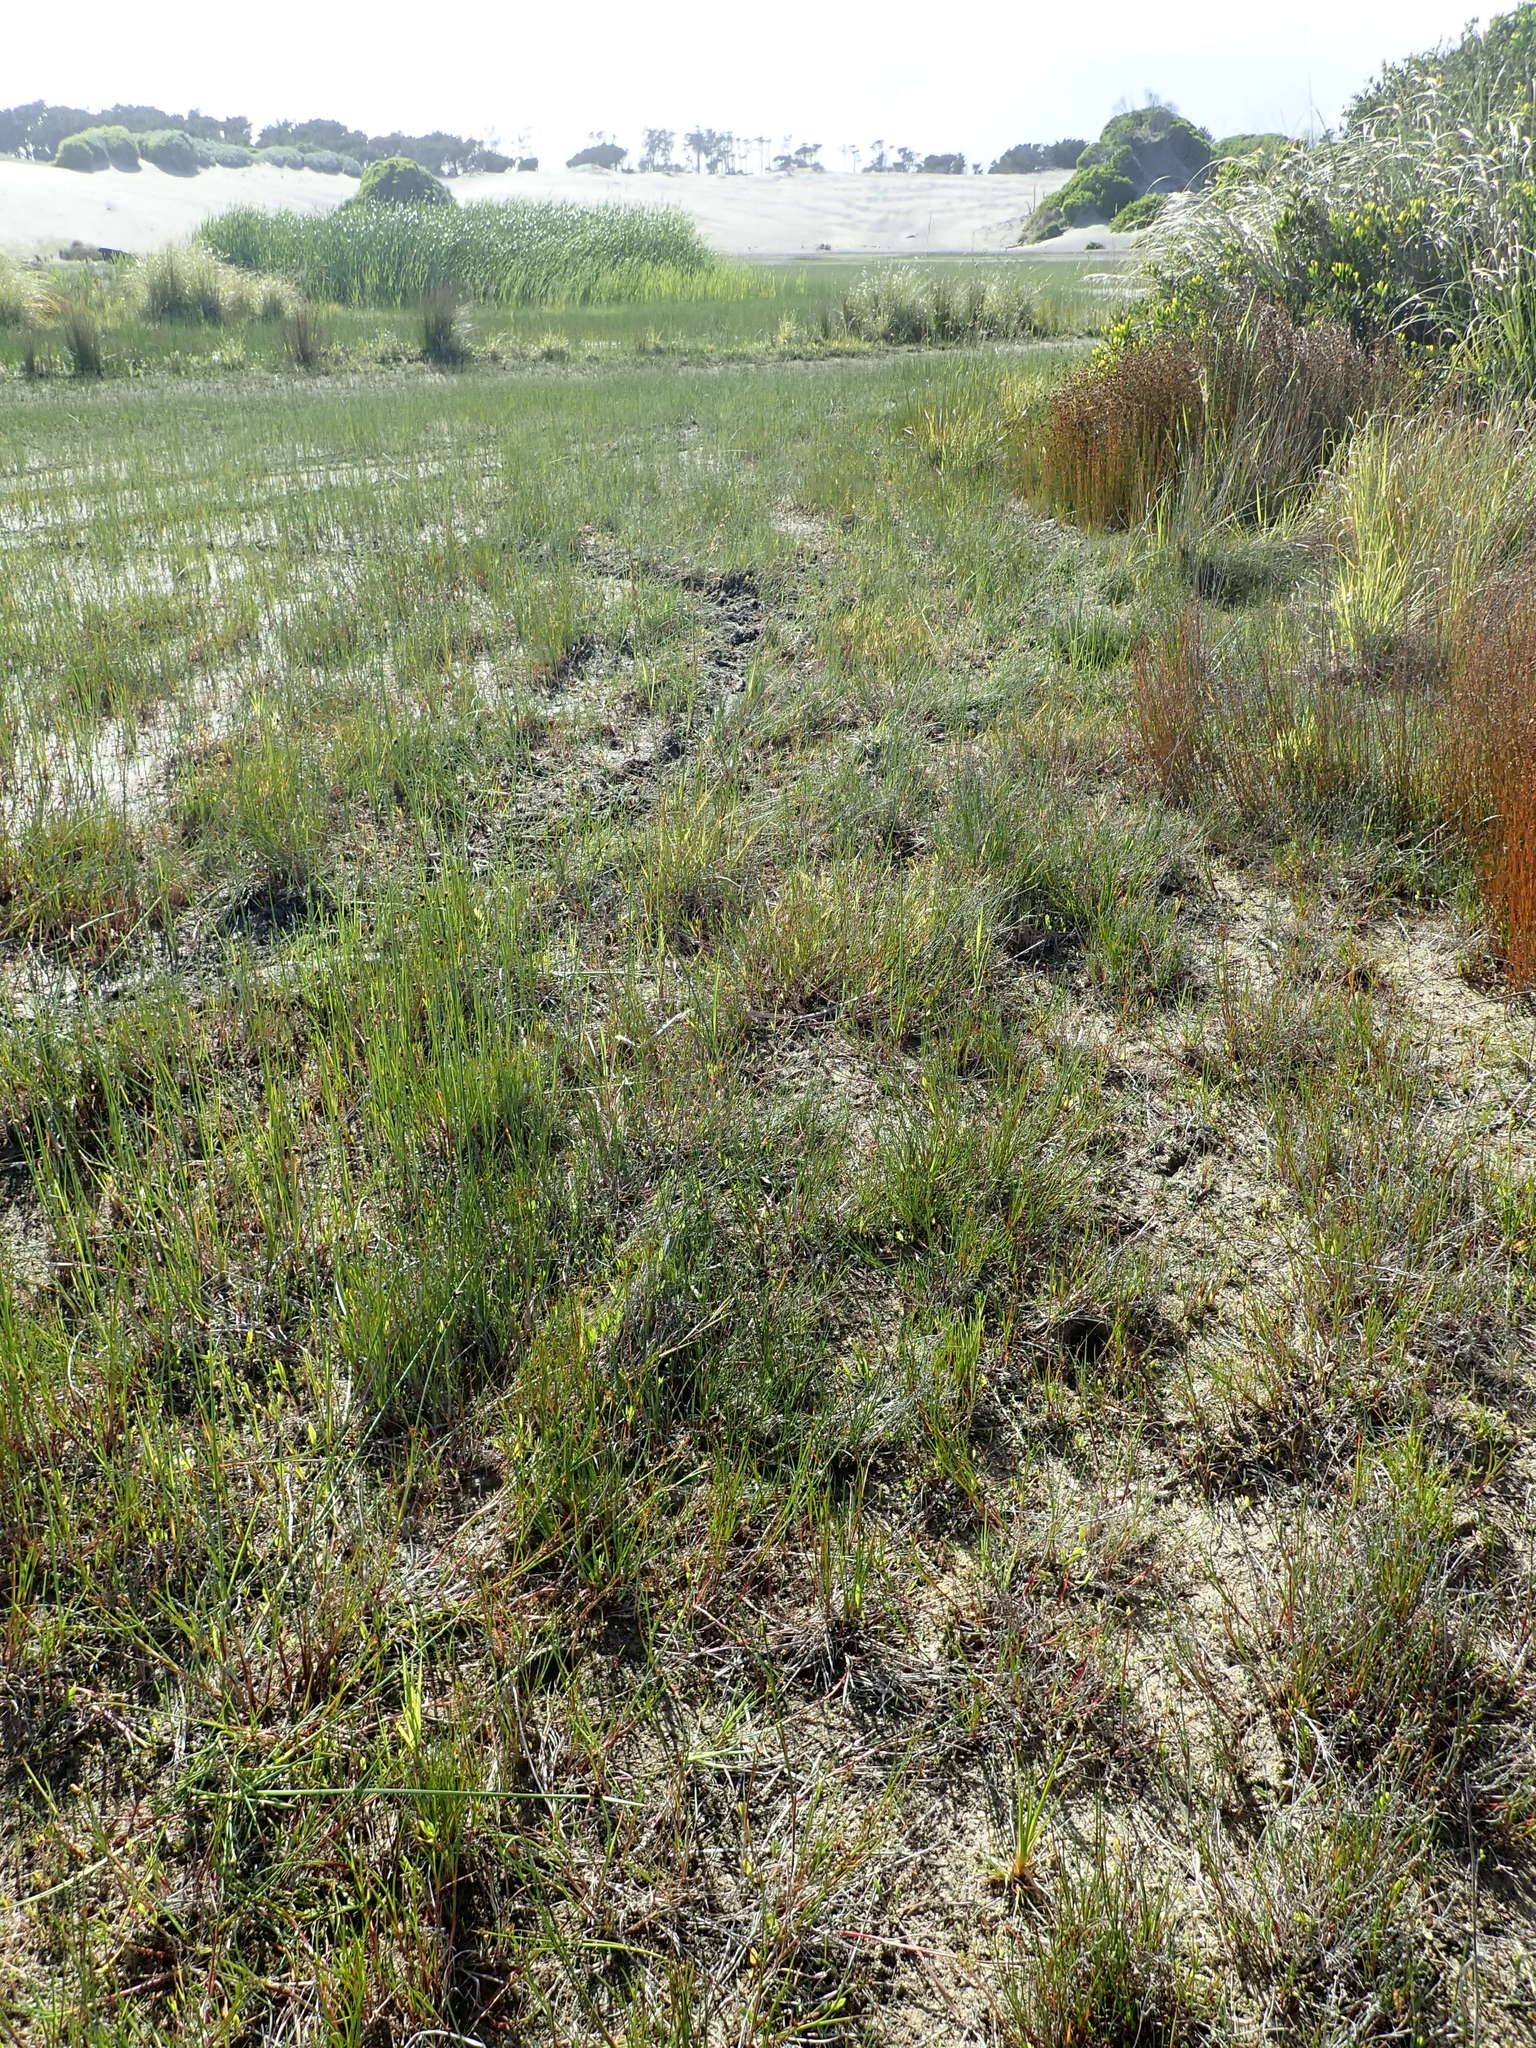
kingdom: Plantae
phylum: Tracheophyta
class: Liliopsida
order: Poales
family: Juncaceae
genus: Juncus
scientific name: Juncus articulatus
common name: Jointed rush
